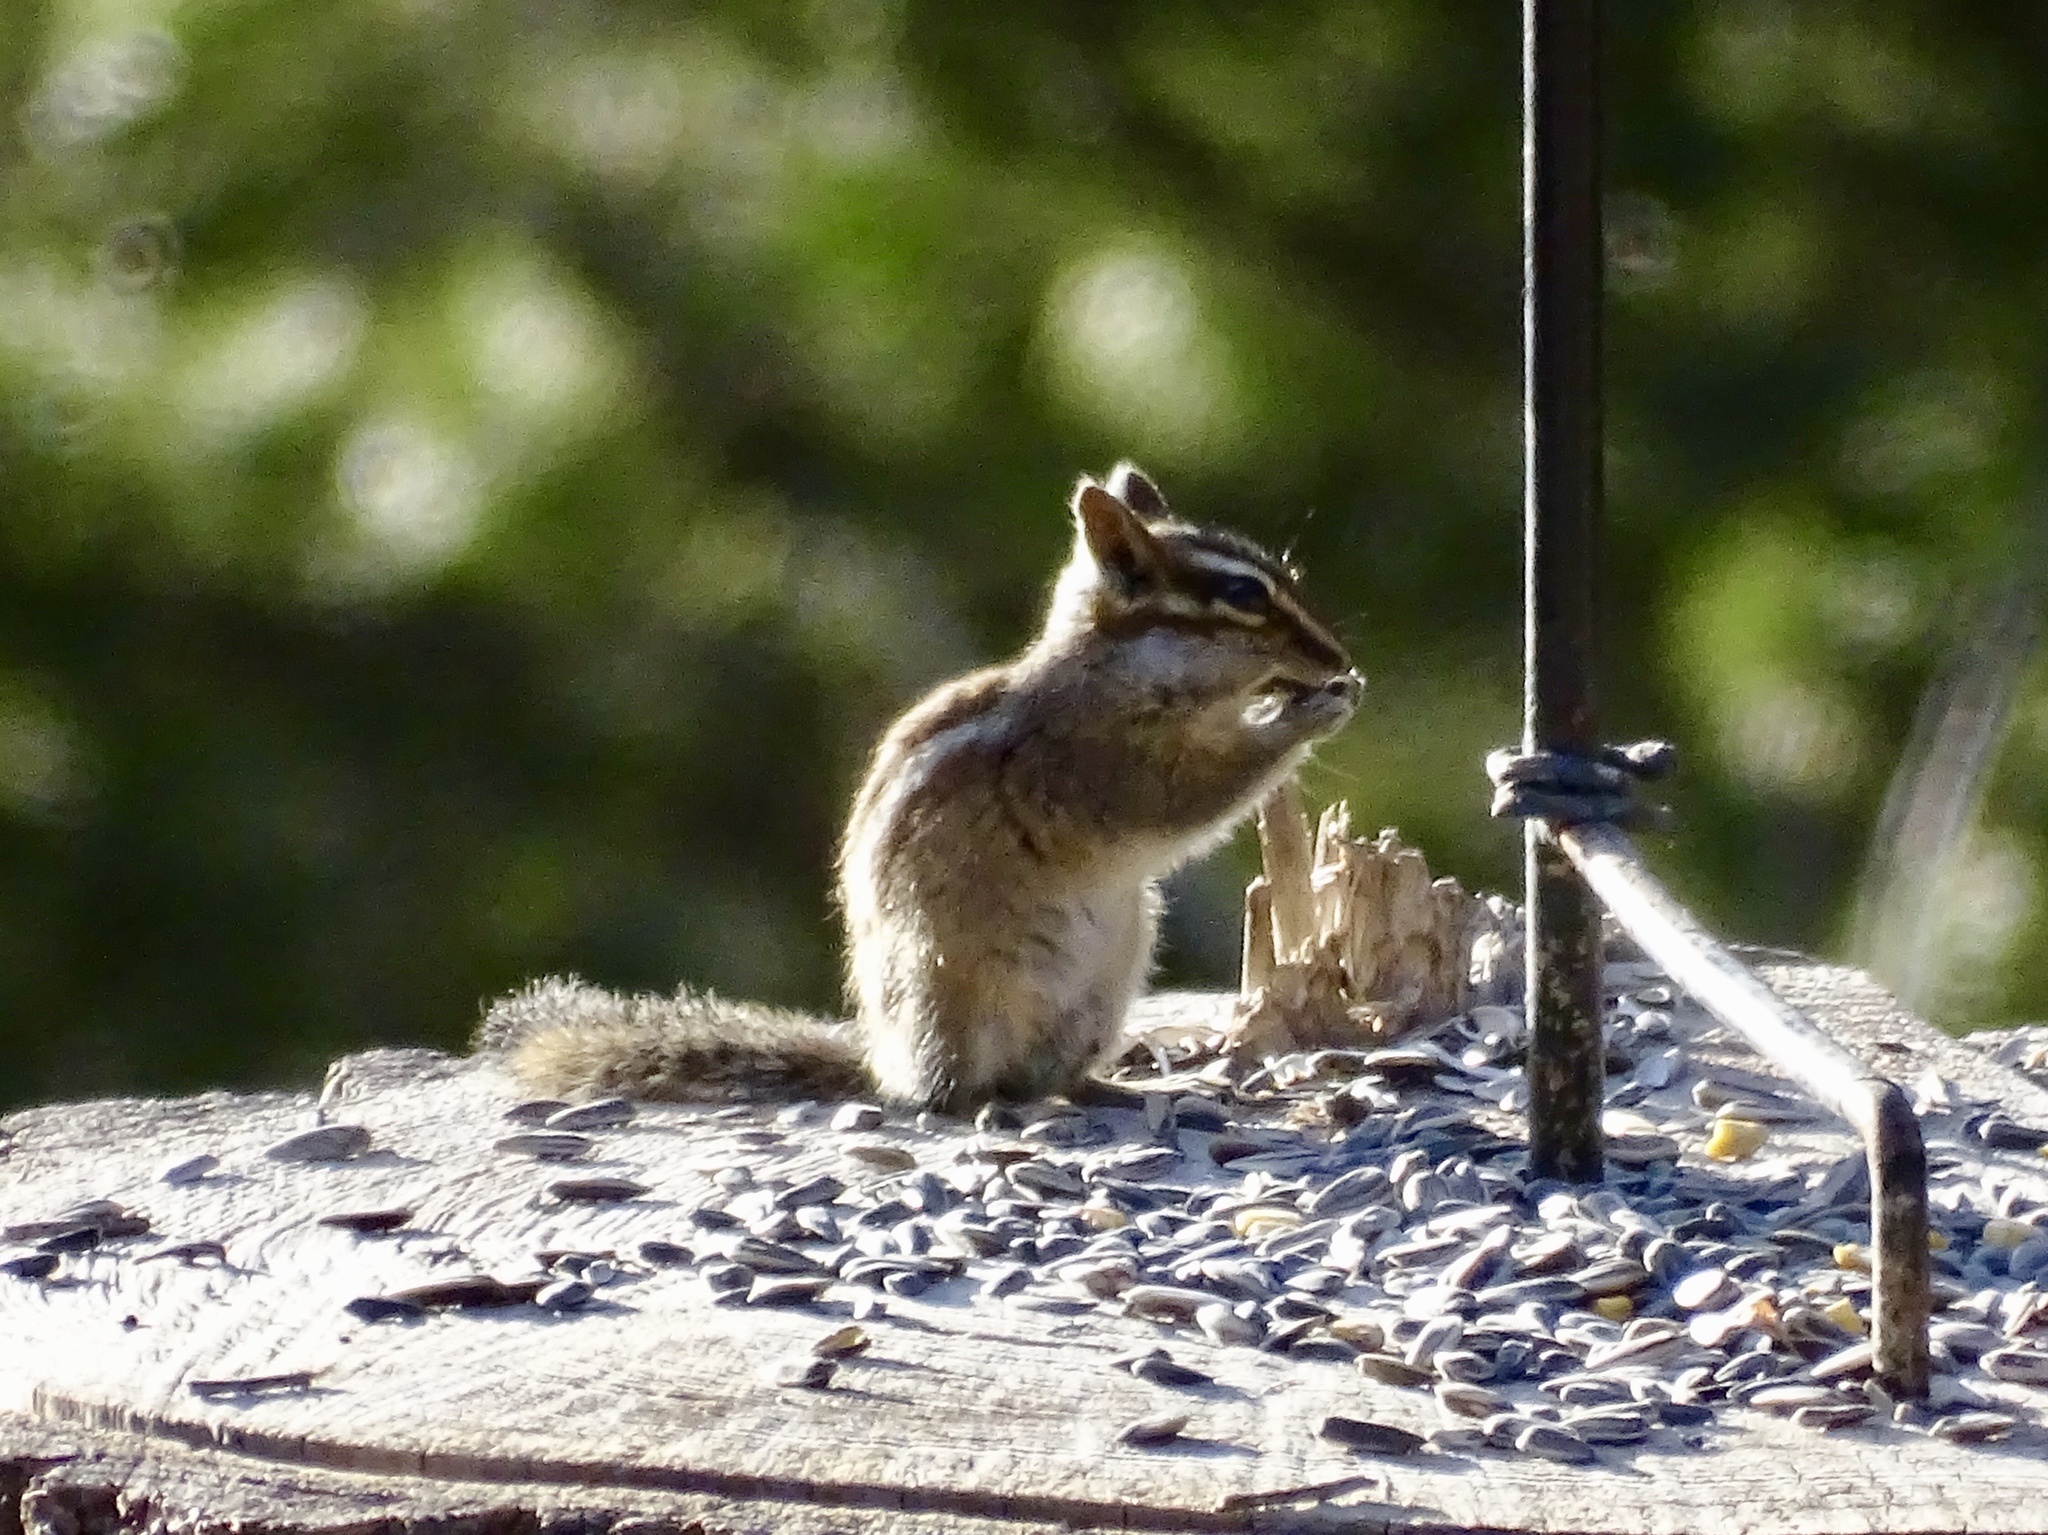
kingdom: Animalia
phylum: Chordata
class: Mammalia
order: Rodentia
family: Sciuridae
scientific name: Sciuridae
